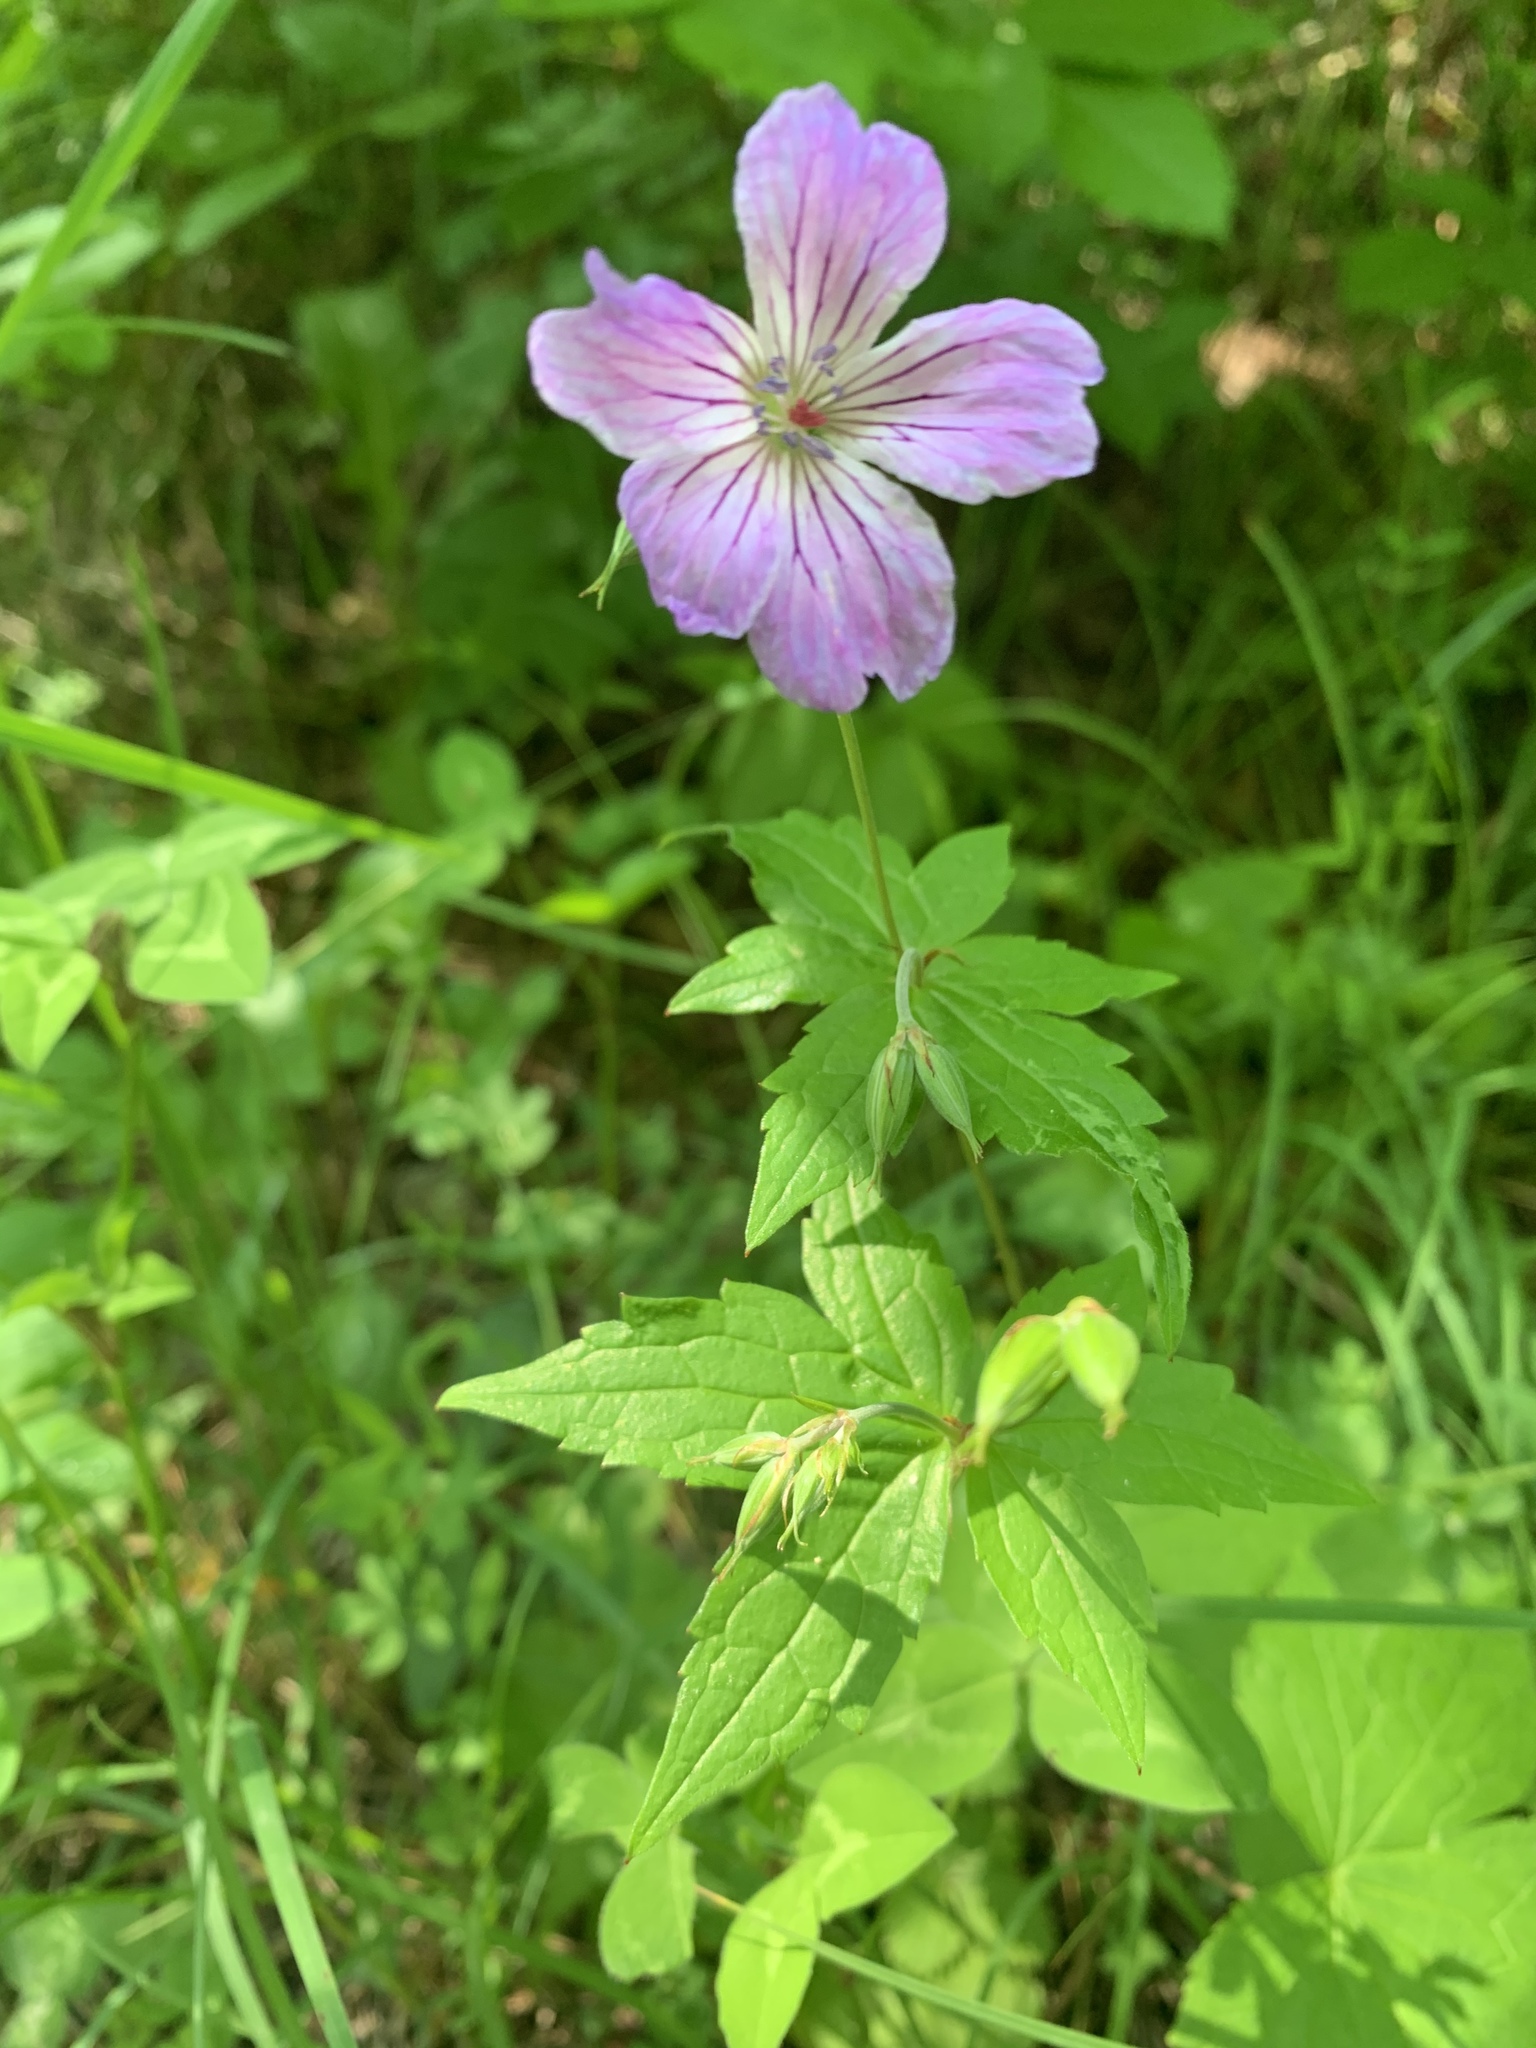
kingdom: Plantae
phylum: Tracheophyta
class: Magnoliopsida
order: Geraniales
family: Geraniaceae
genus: Geranium
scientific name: Geranium nodosum
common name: Knotted crane's-bill
